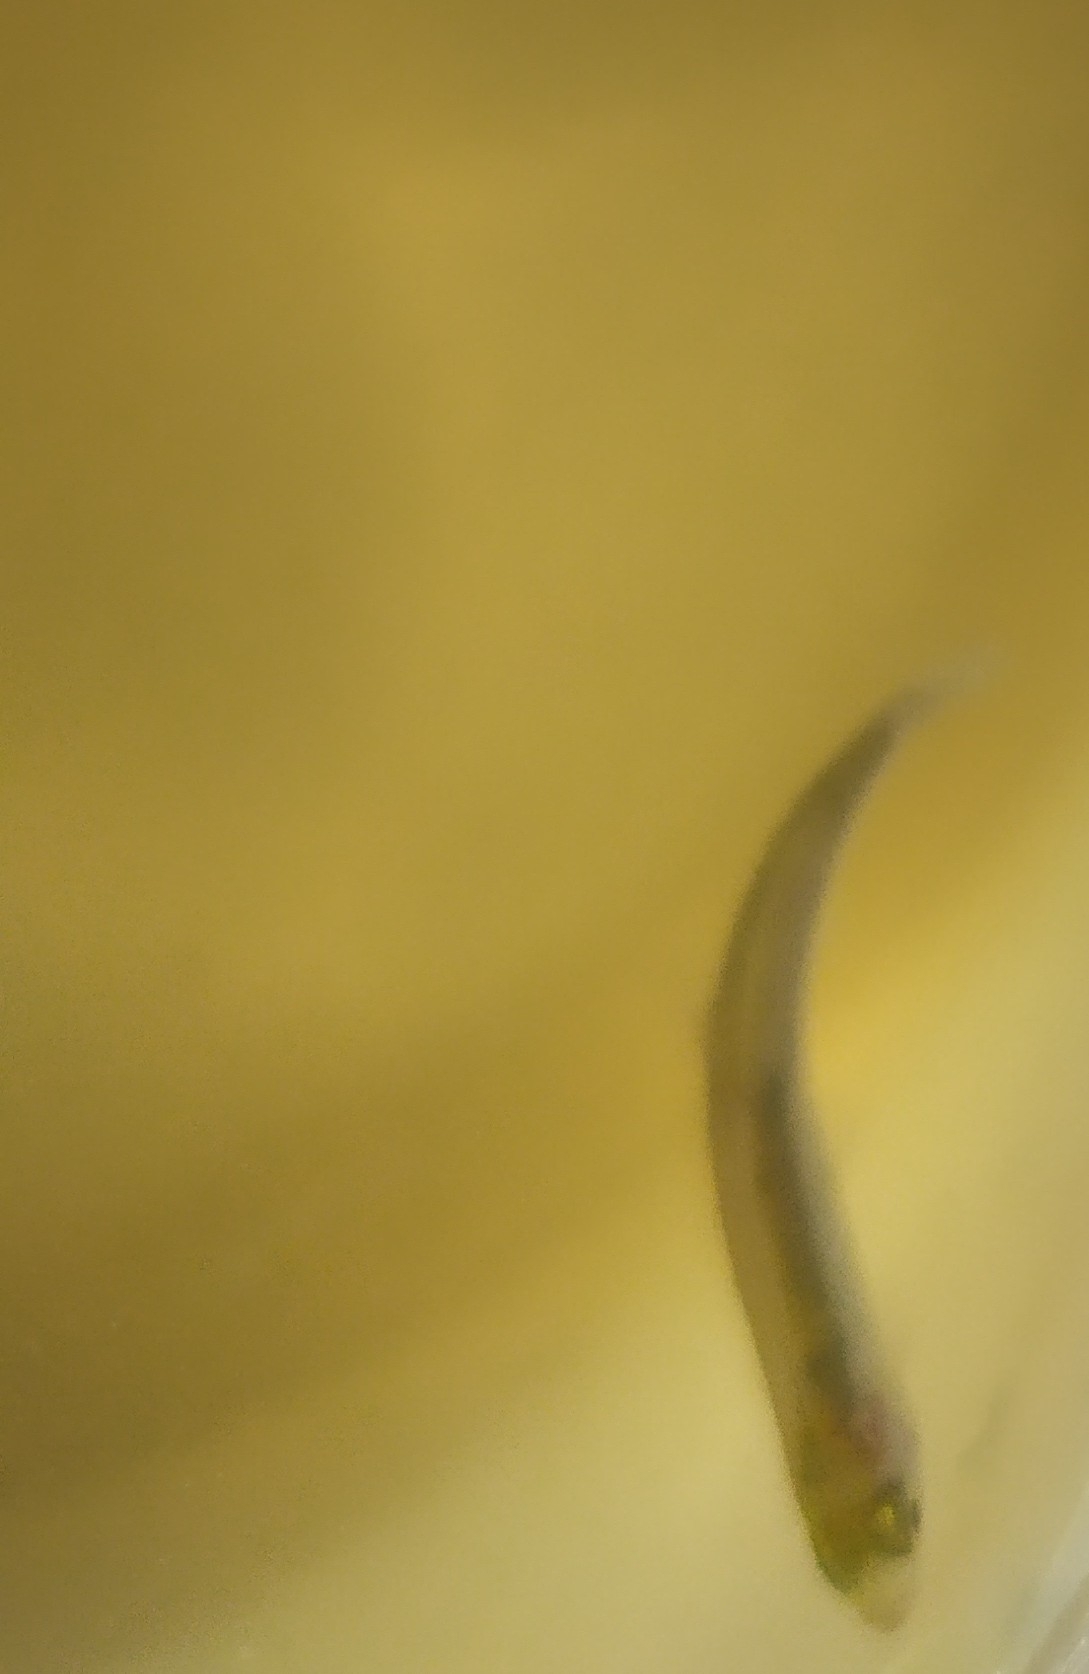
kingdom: Animalia
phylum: Chordata
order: Cypriniformes
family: Cyprinidae
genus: Alburnus
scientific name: Alburnus alburnus
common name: Bleak
